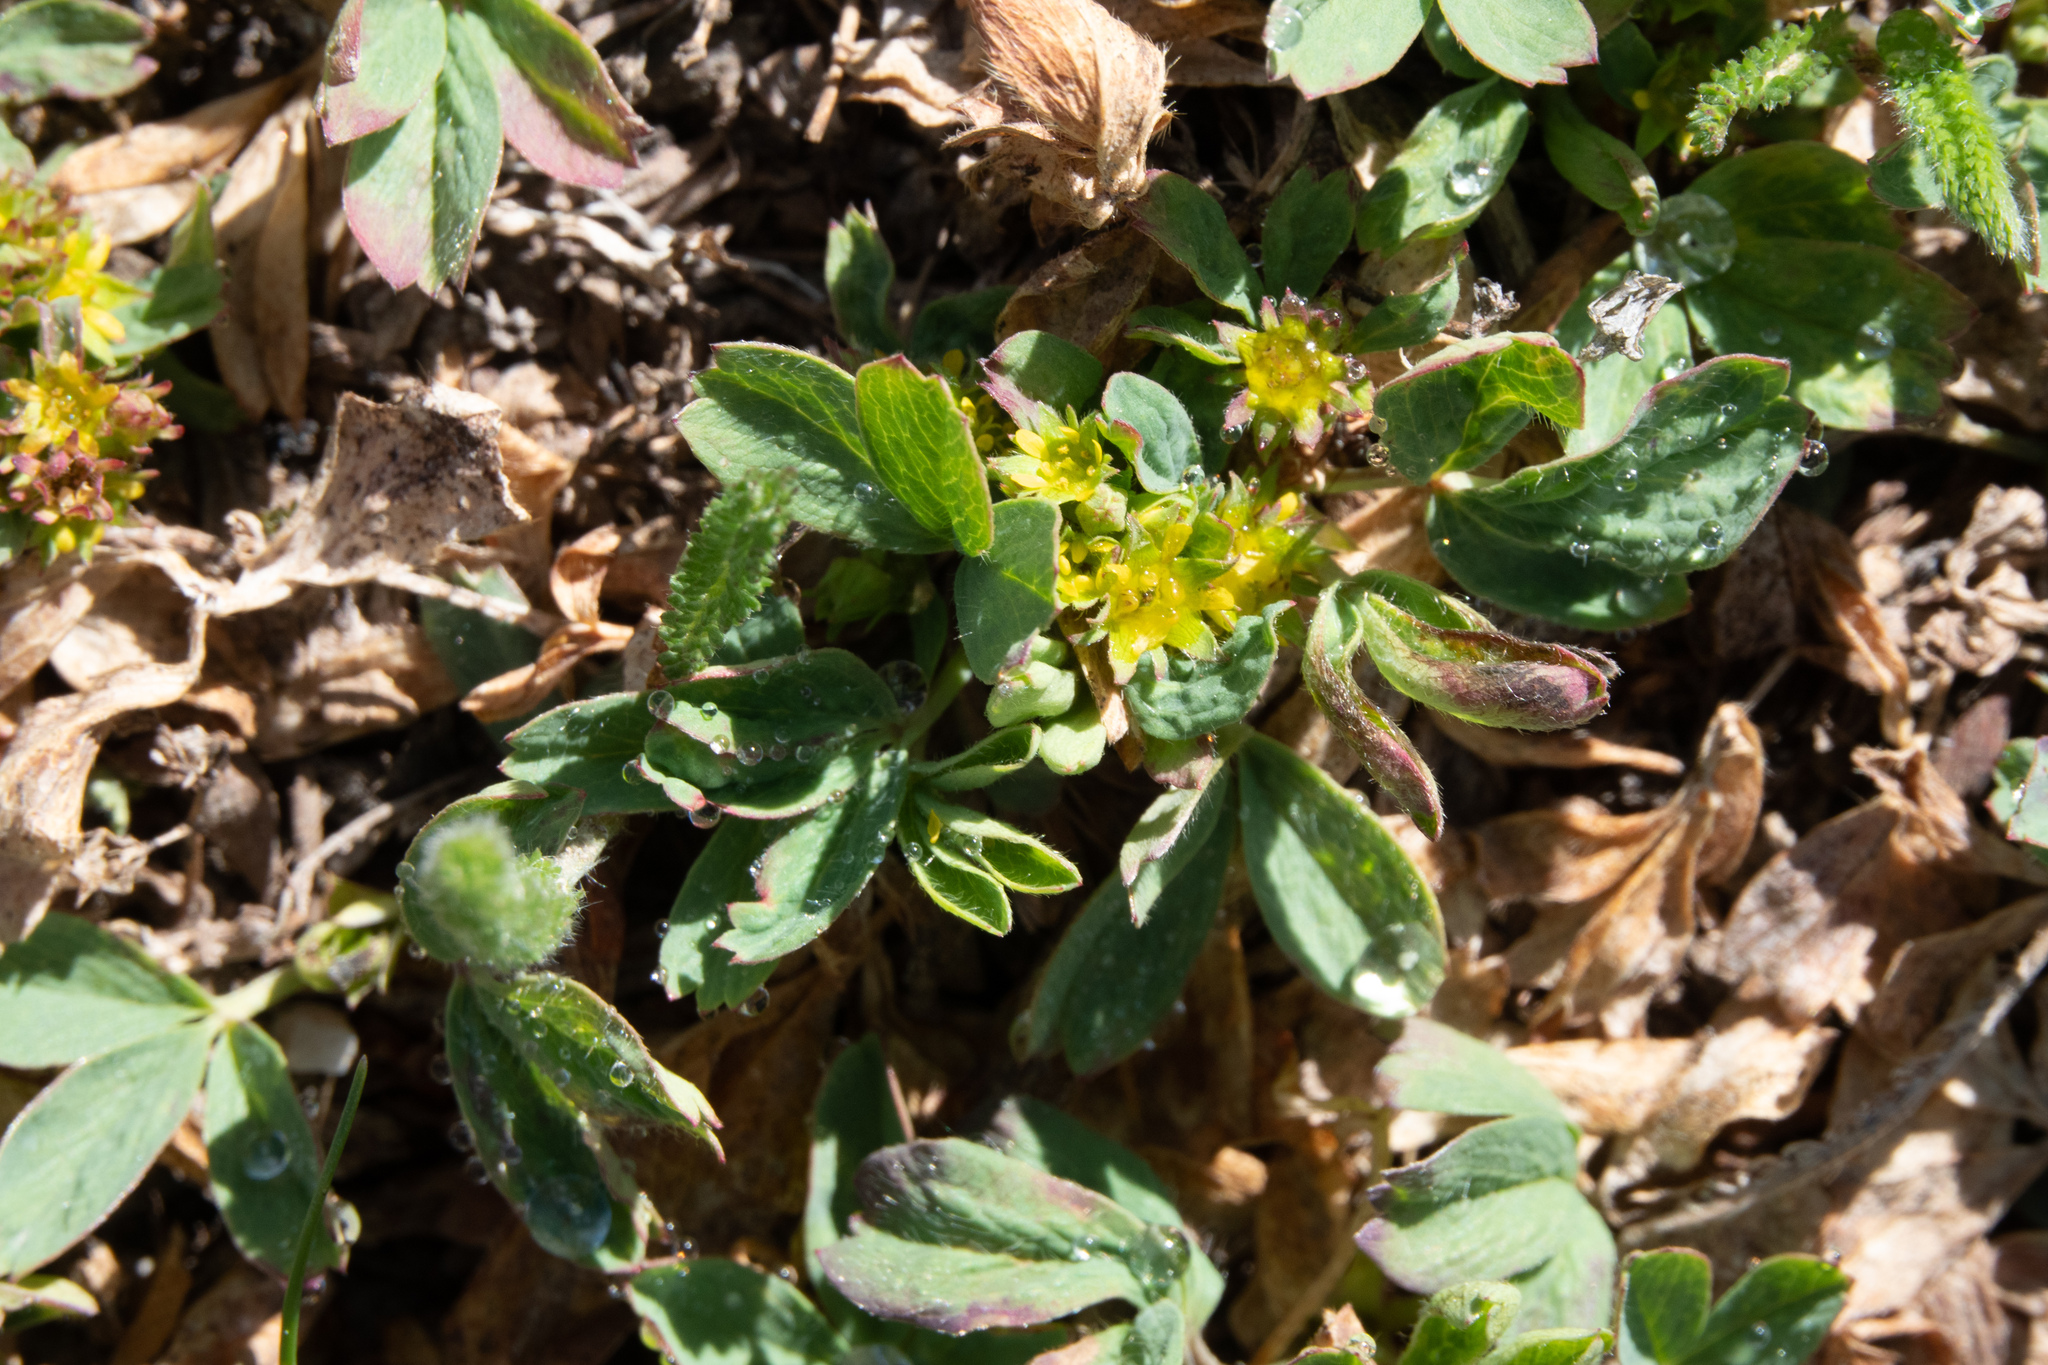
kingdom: Plantae
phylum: Tracheophyta
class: Magnoliopsida
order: Rosales
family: Rosaceae
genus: Sibbaldia
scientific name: Sibbaldia procumbens
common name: Creeping sibbaldia
